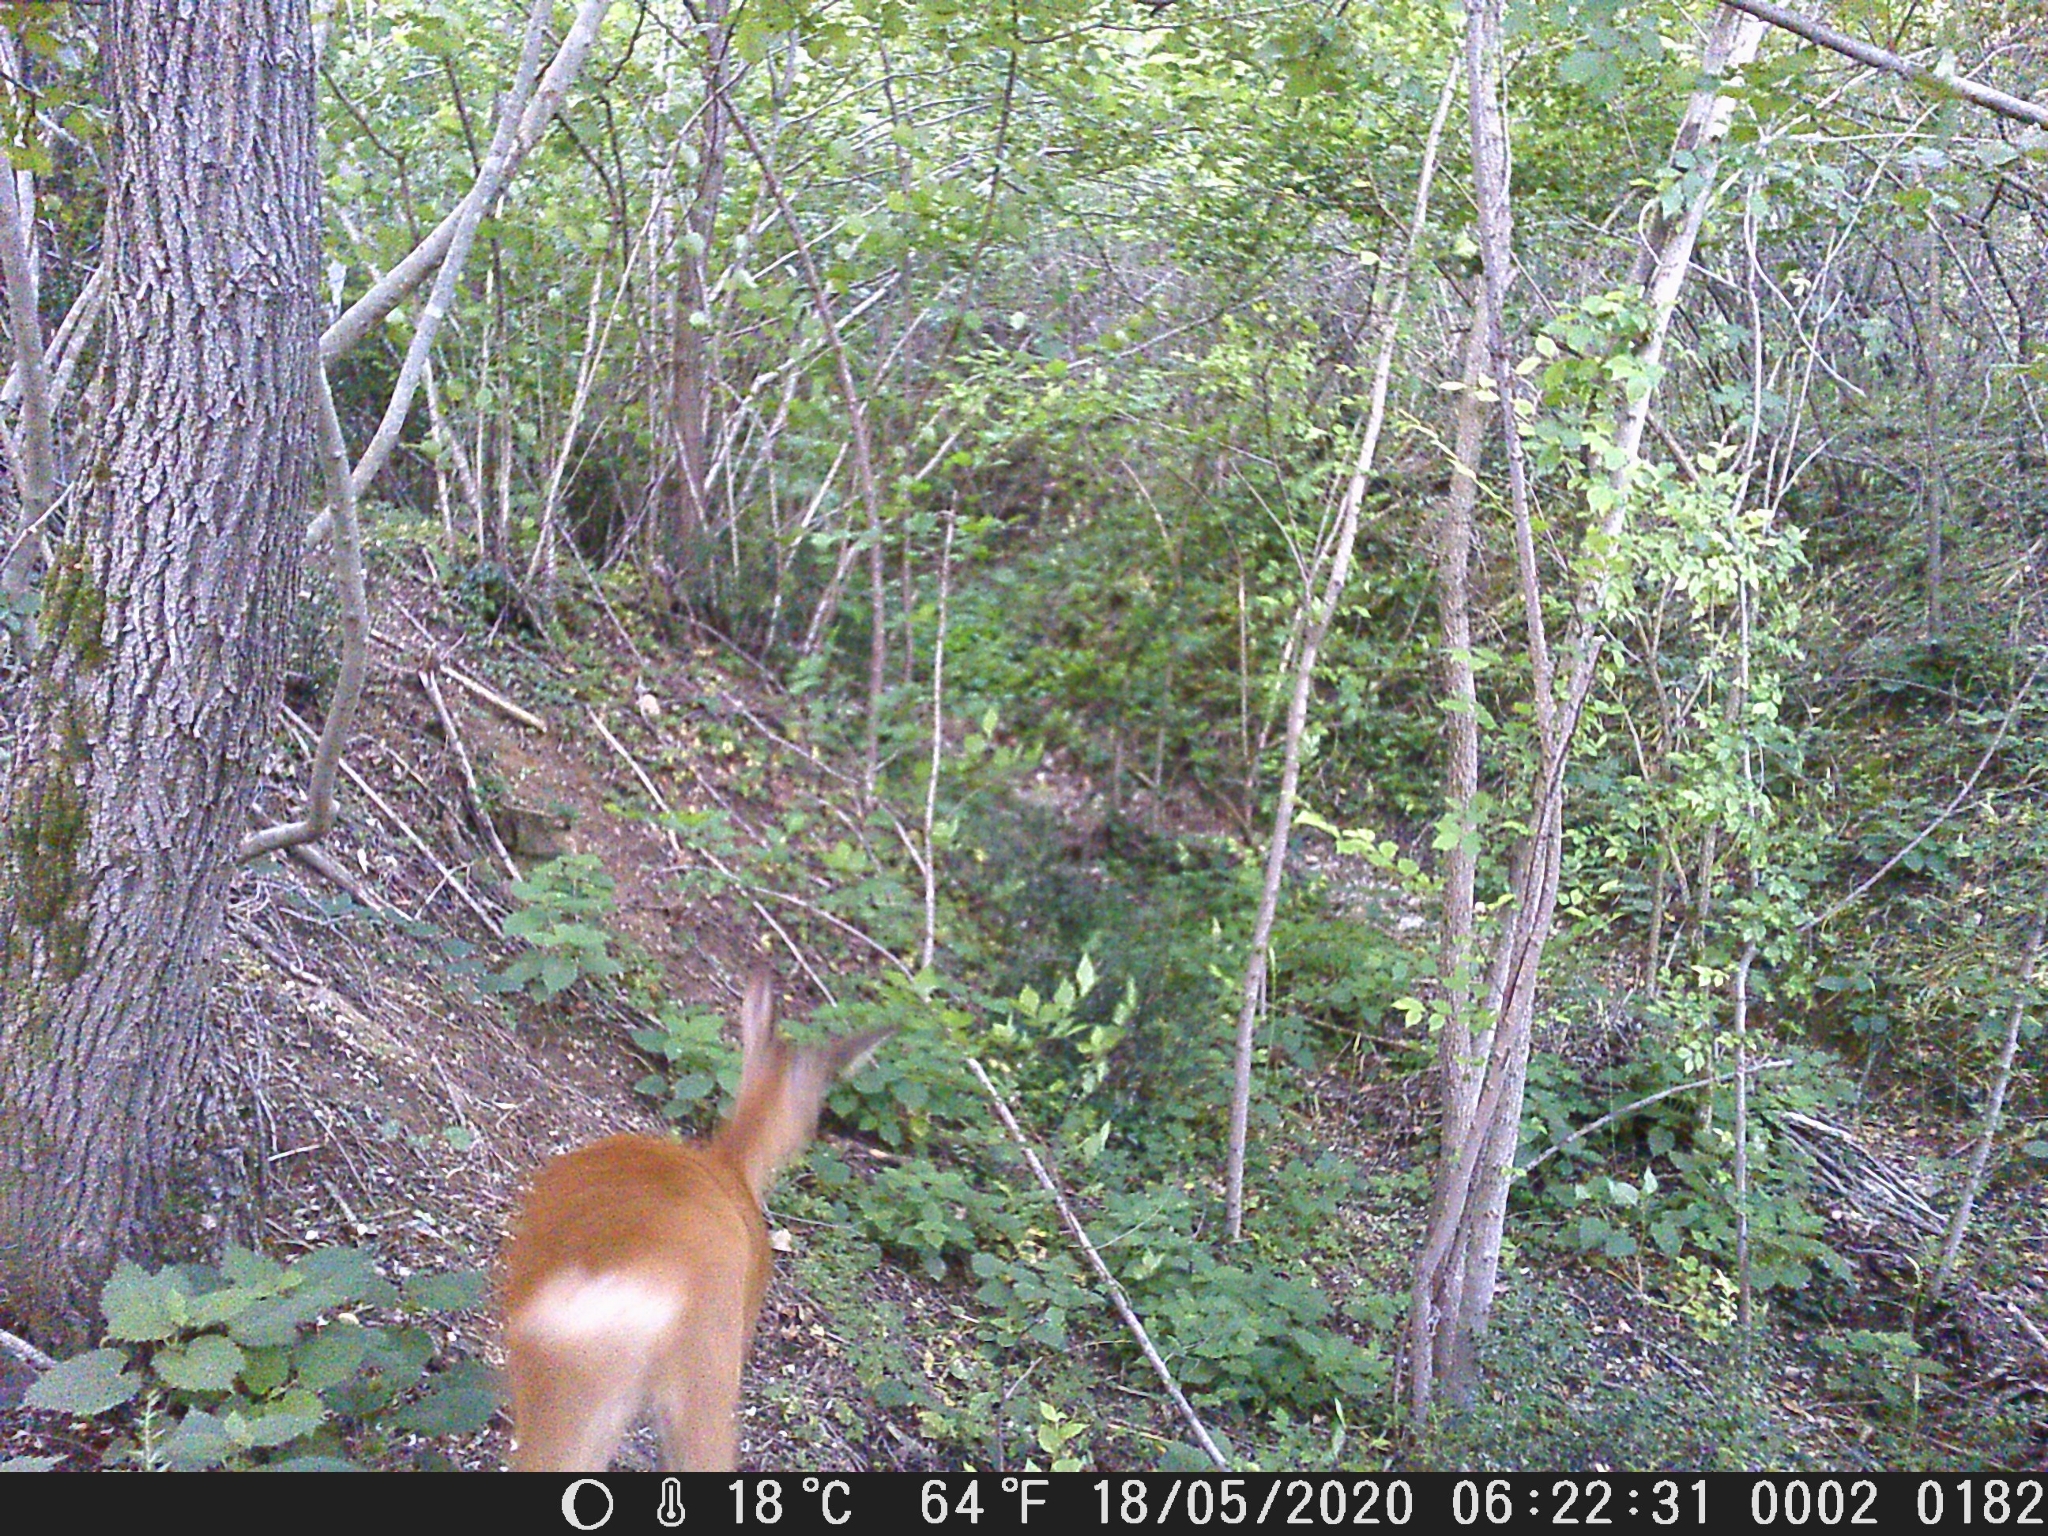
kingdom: Animalia
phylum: Chordata
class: Mammalia
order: Artiodactyla
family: Cervidae
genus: Capreolus
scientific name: Capreolus capreolus
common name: Western roe deer
